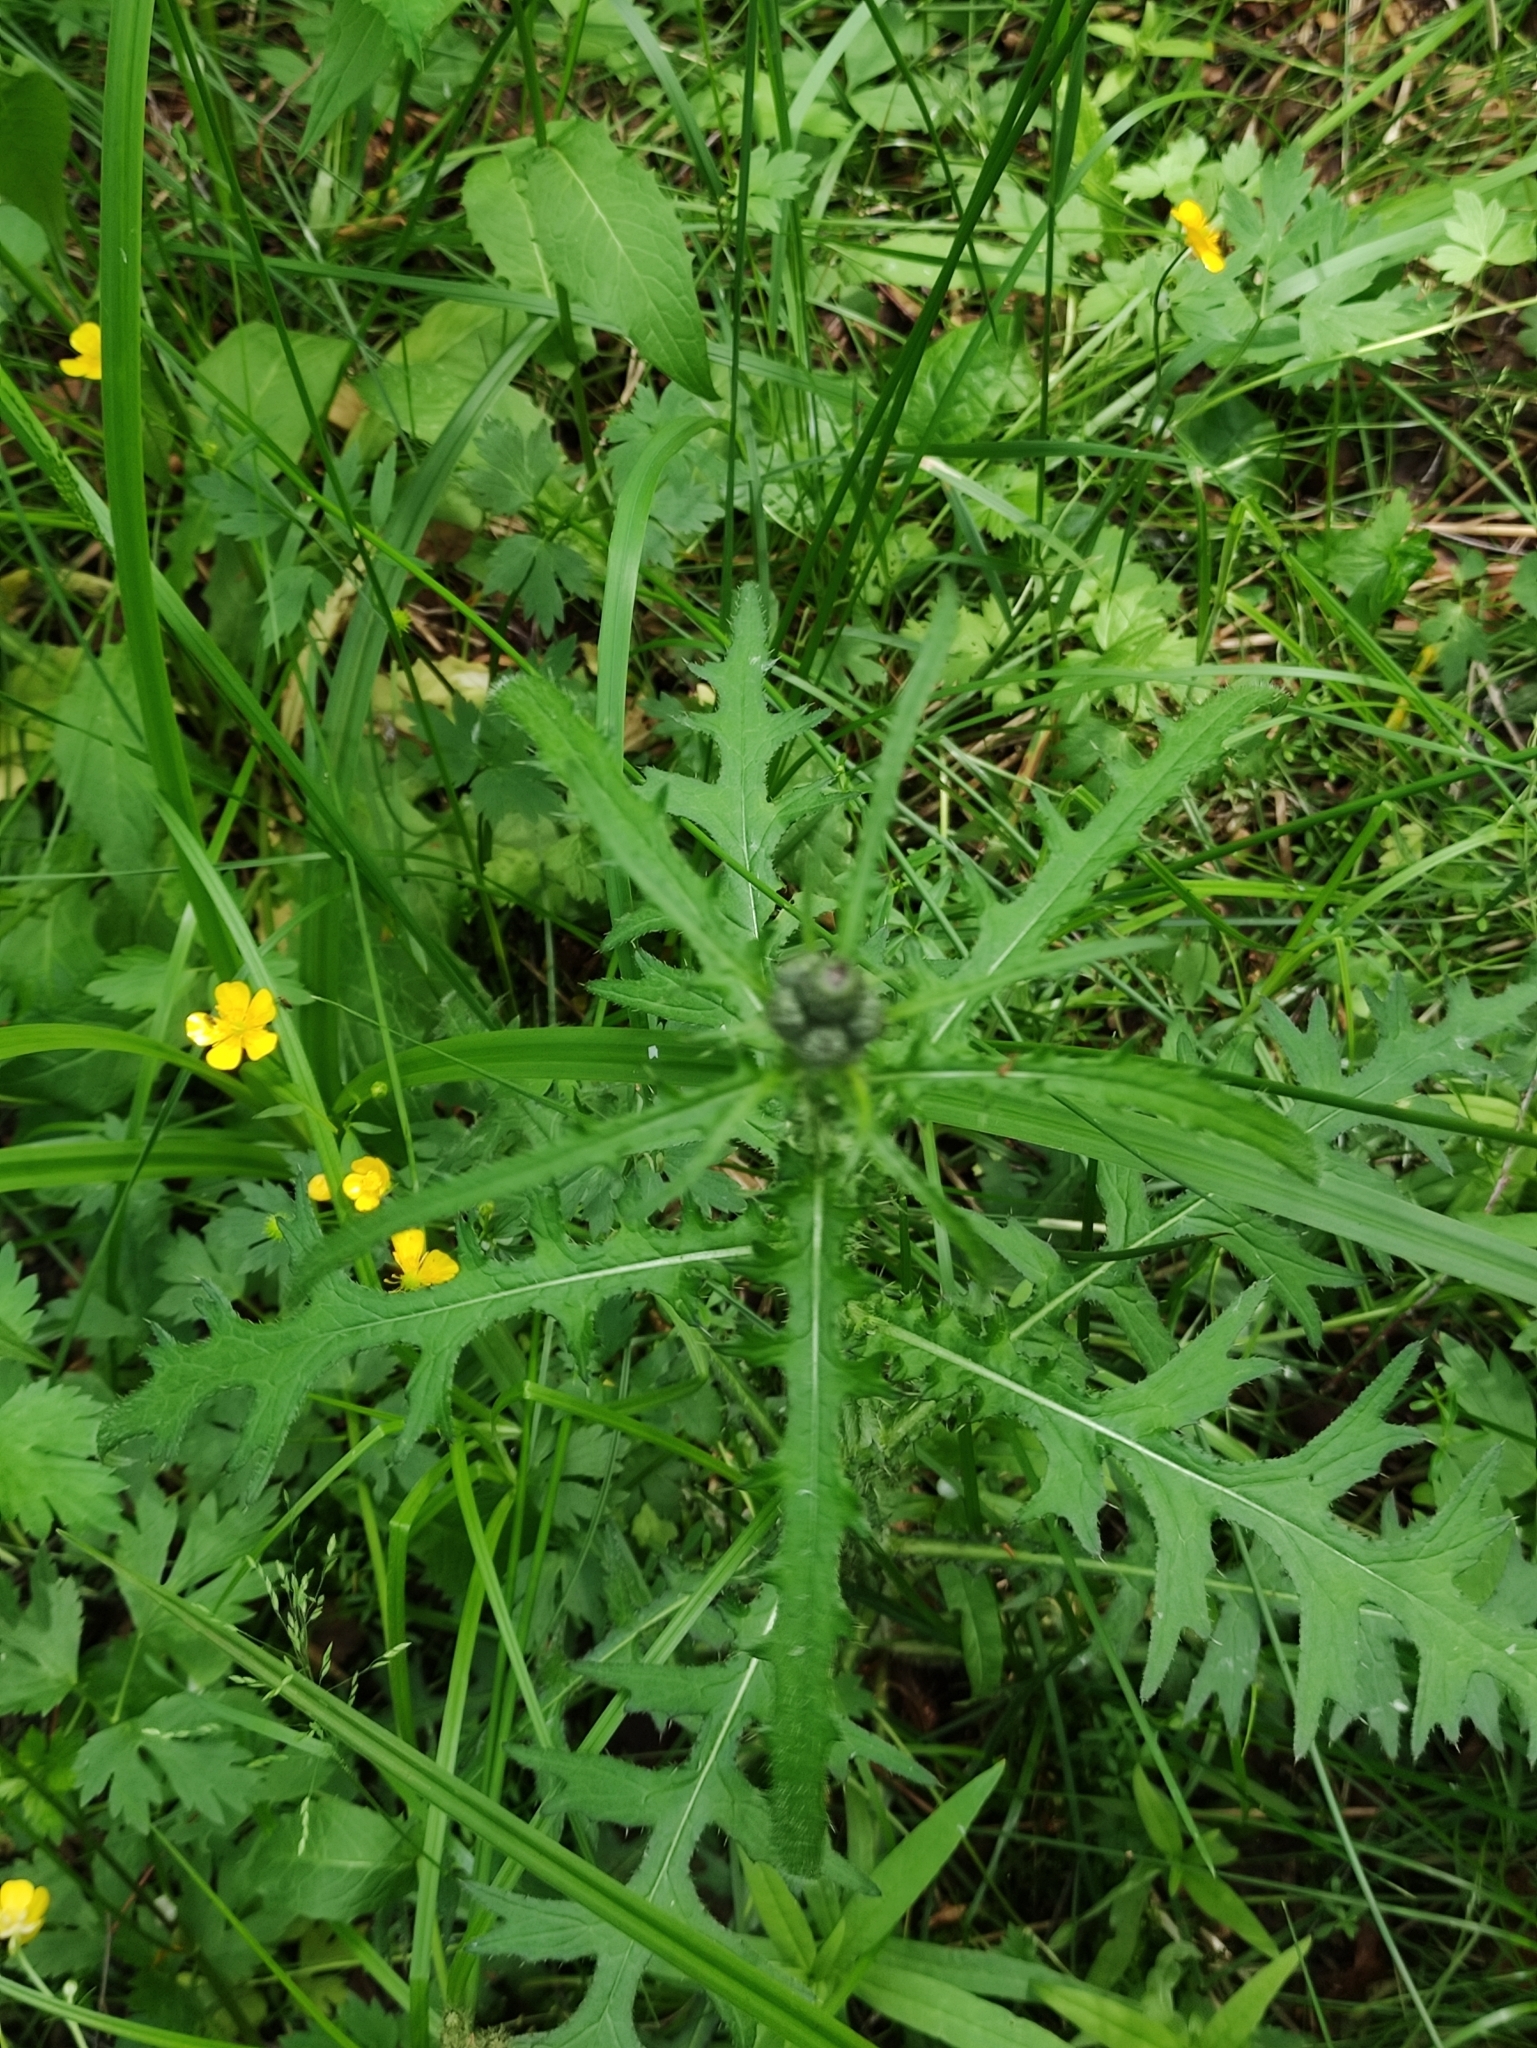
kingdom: Plantae
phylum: Tracheophyta
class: Magnoliopsida
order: Asterales
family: Asteraceae
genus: Cirsium
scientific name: Cirsium palustre
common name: Marsh thistle
